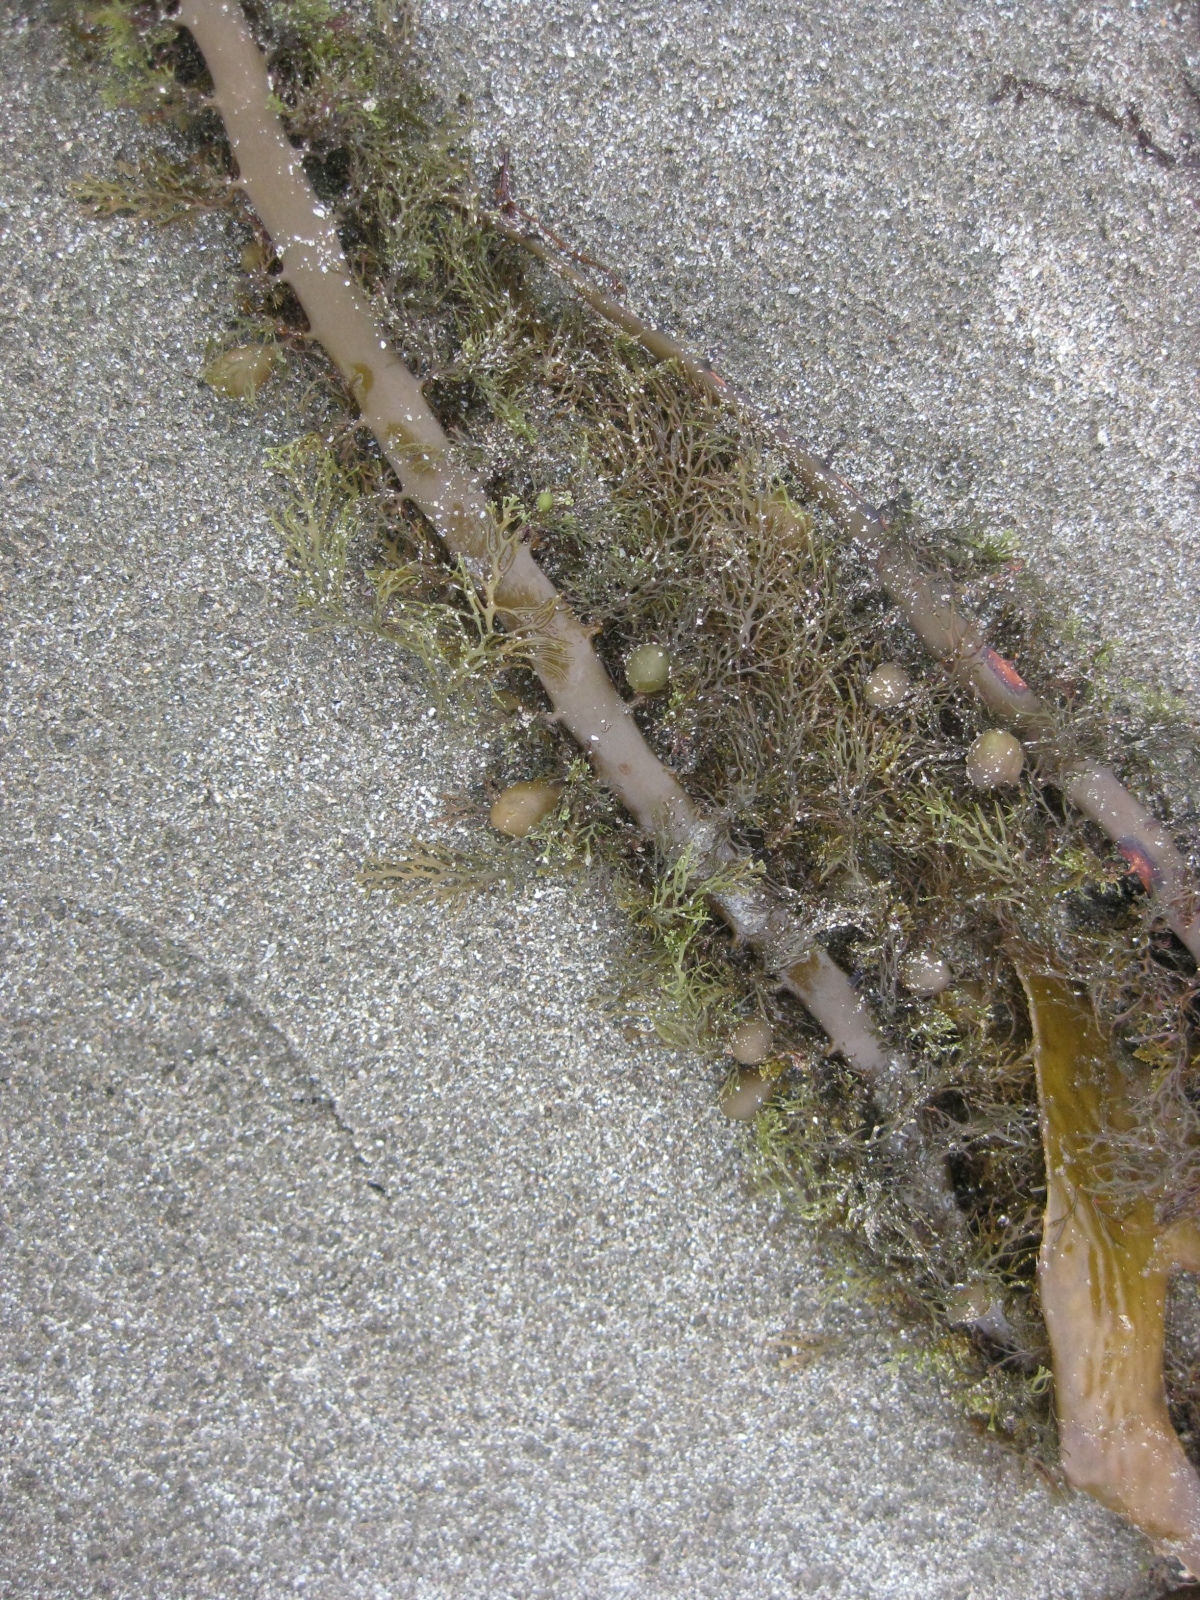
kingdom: Chromista
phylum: Ochrophyta
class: Phaeophyceae
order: Fucales
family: Sargassaceae
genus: Carpophyllum
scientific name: Carpophyllum plumosum
